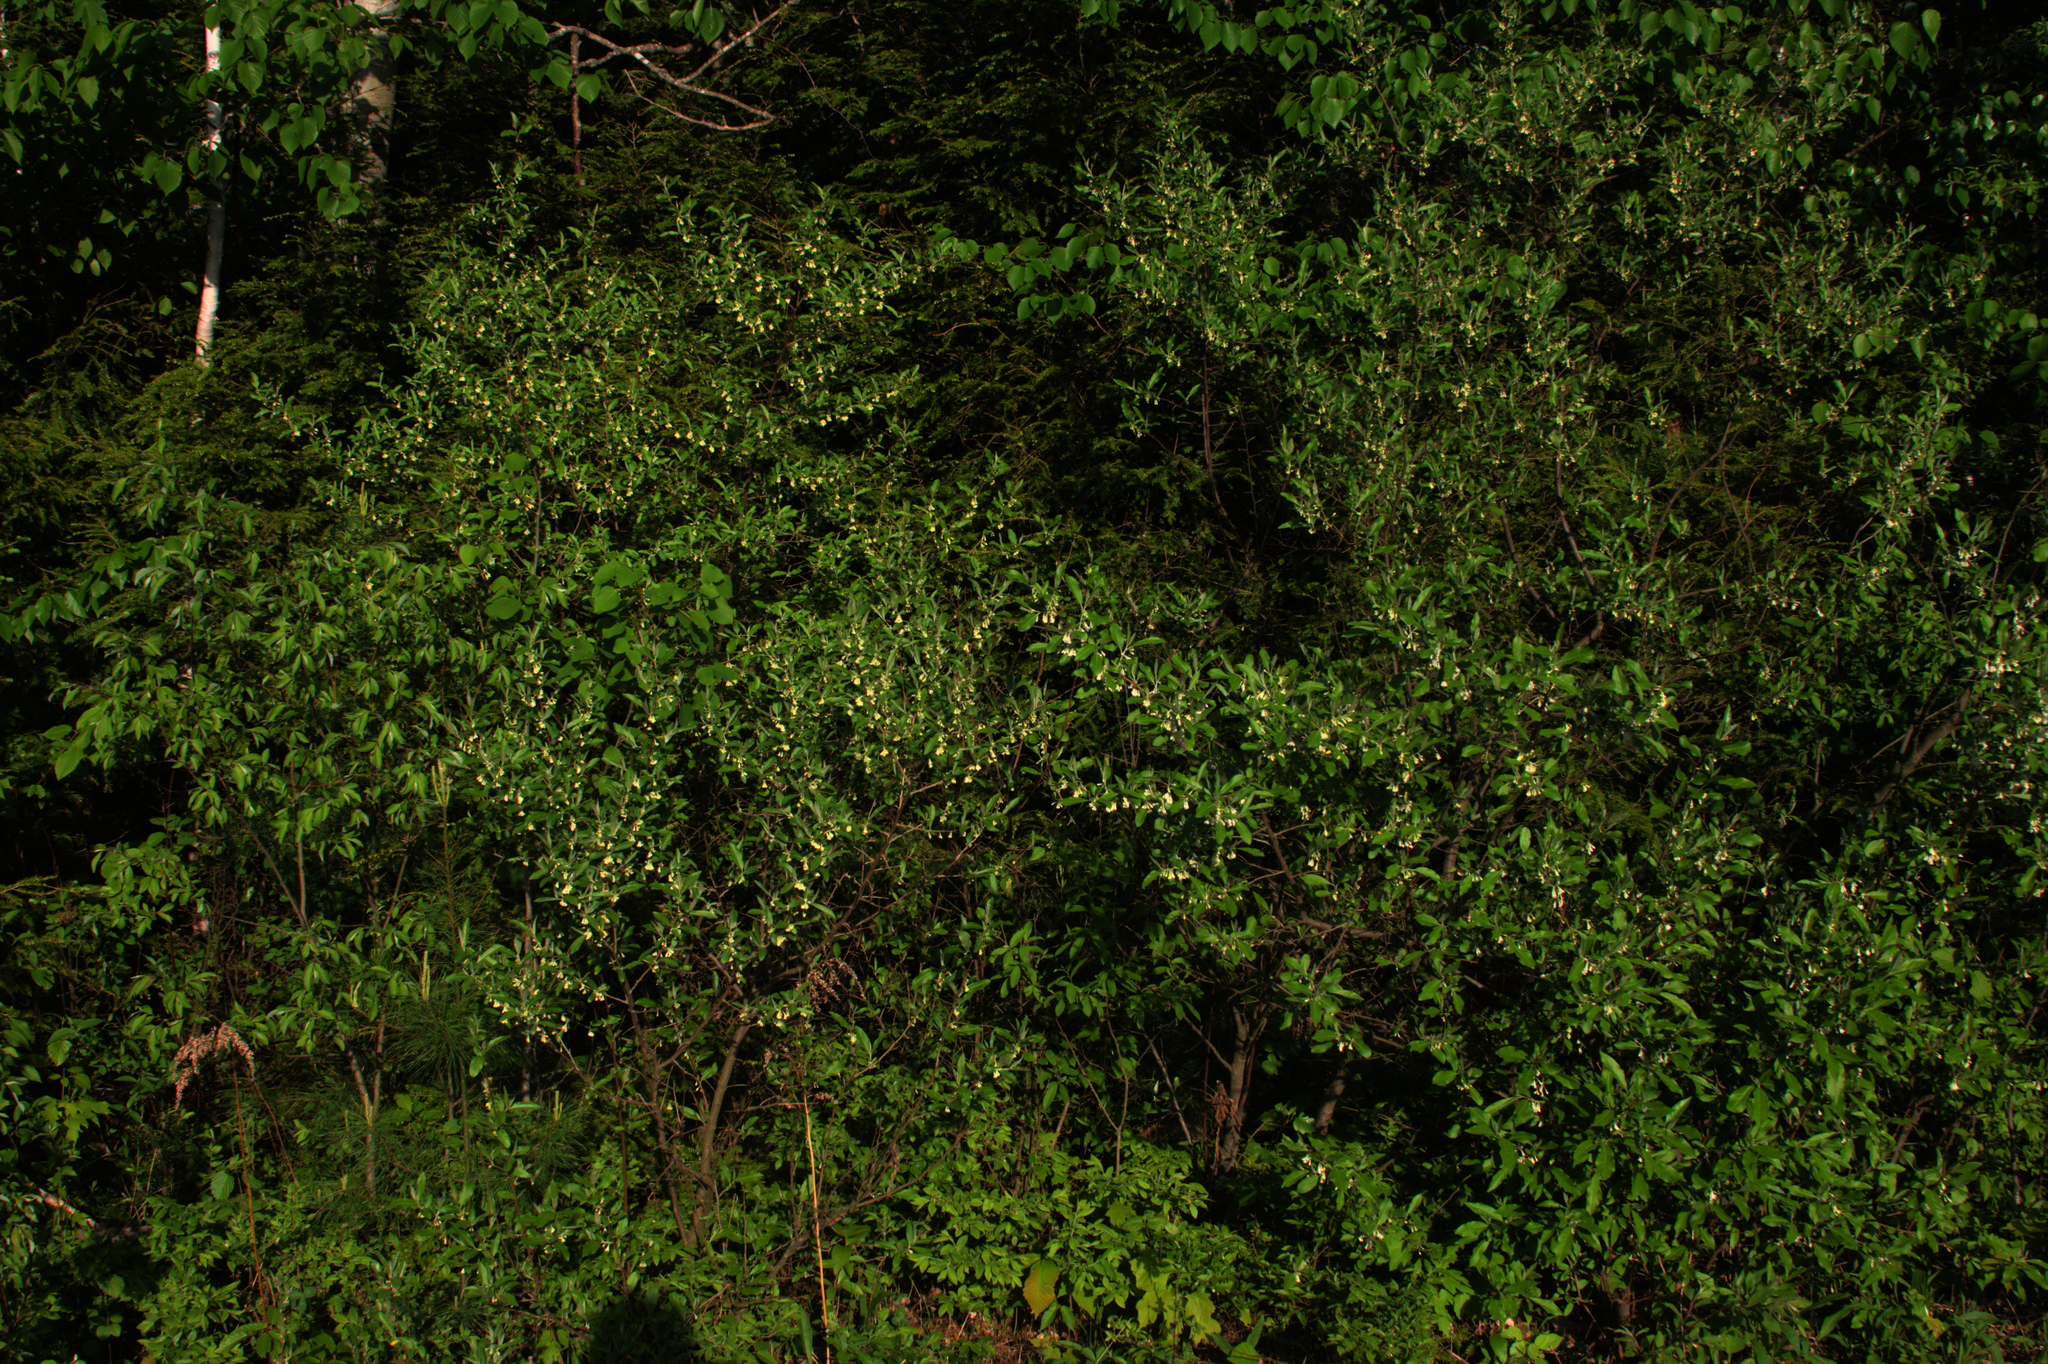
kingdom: Plantae
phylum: Tracheophyta
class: Magnoliopsida
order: Rosales
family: Elaeagnaceae
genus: Elaeagnus
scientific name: Elaeagnus umbellata
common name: Autumn olive
